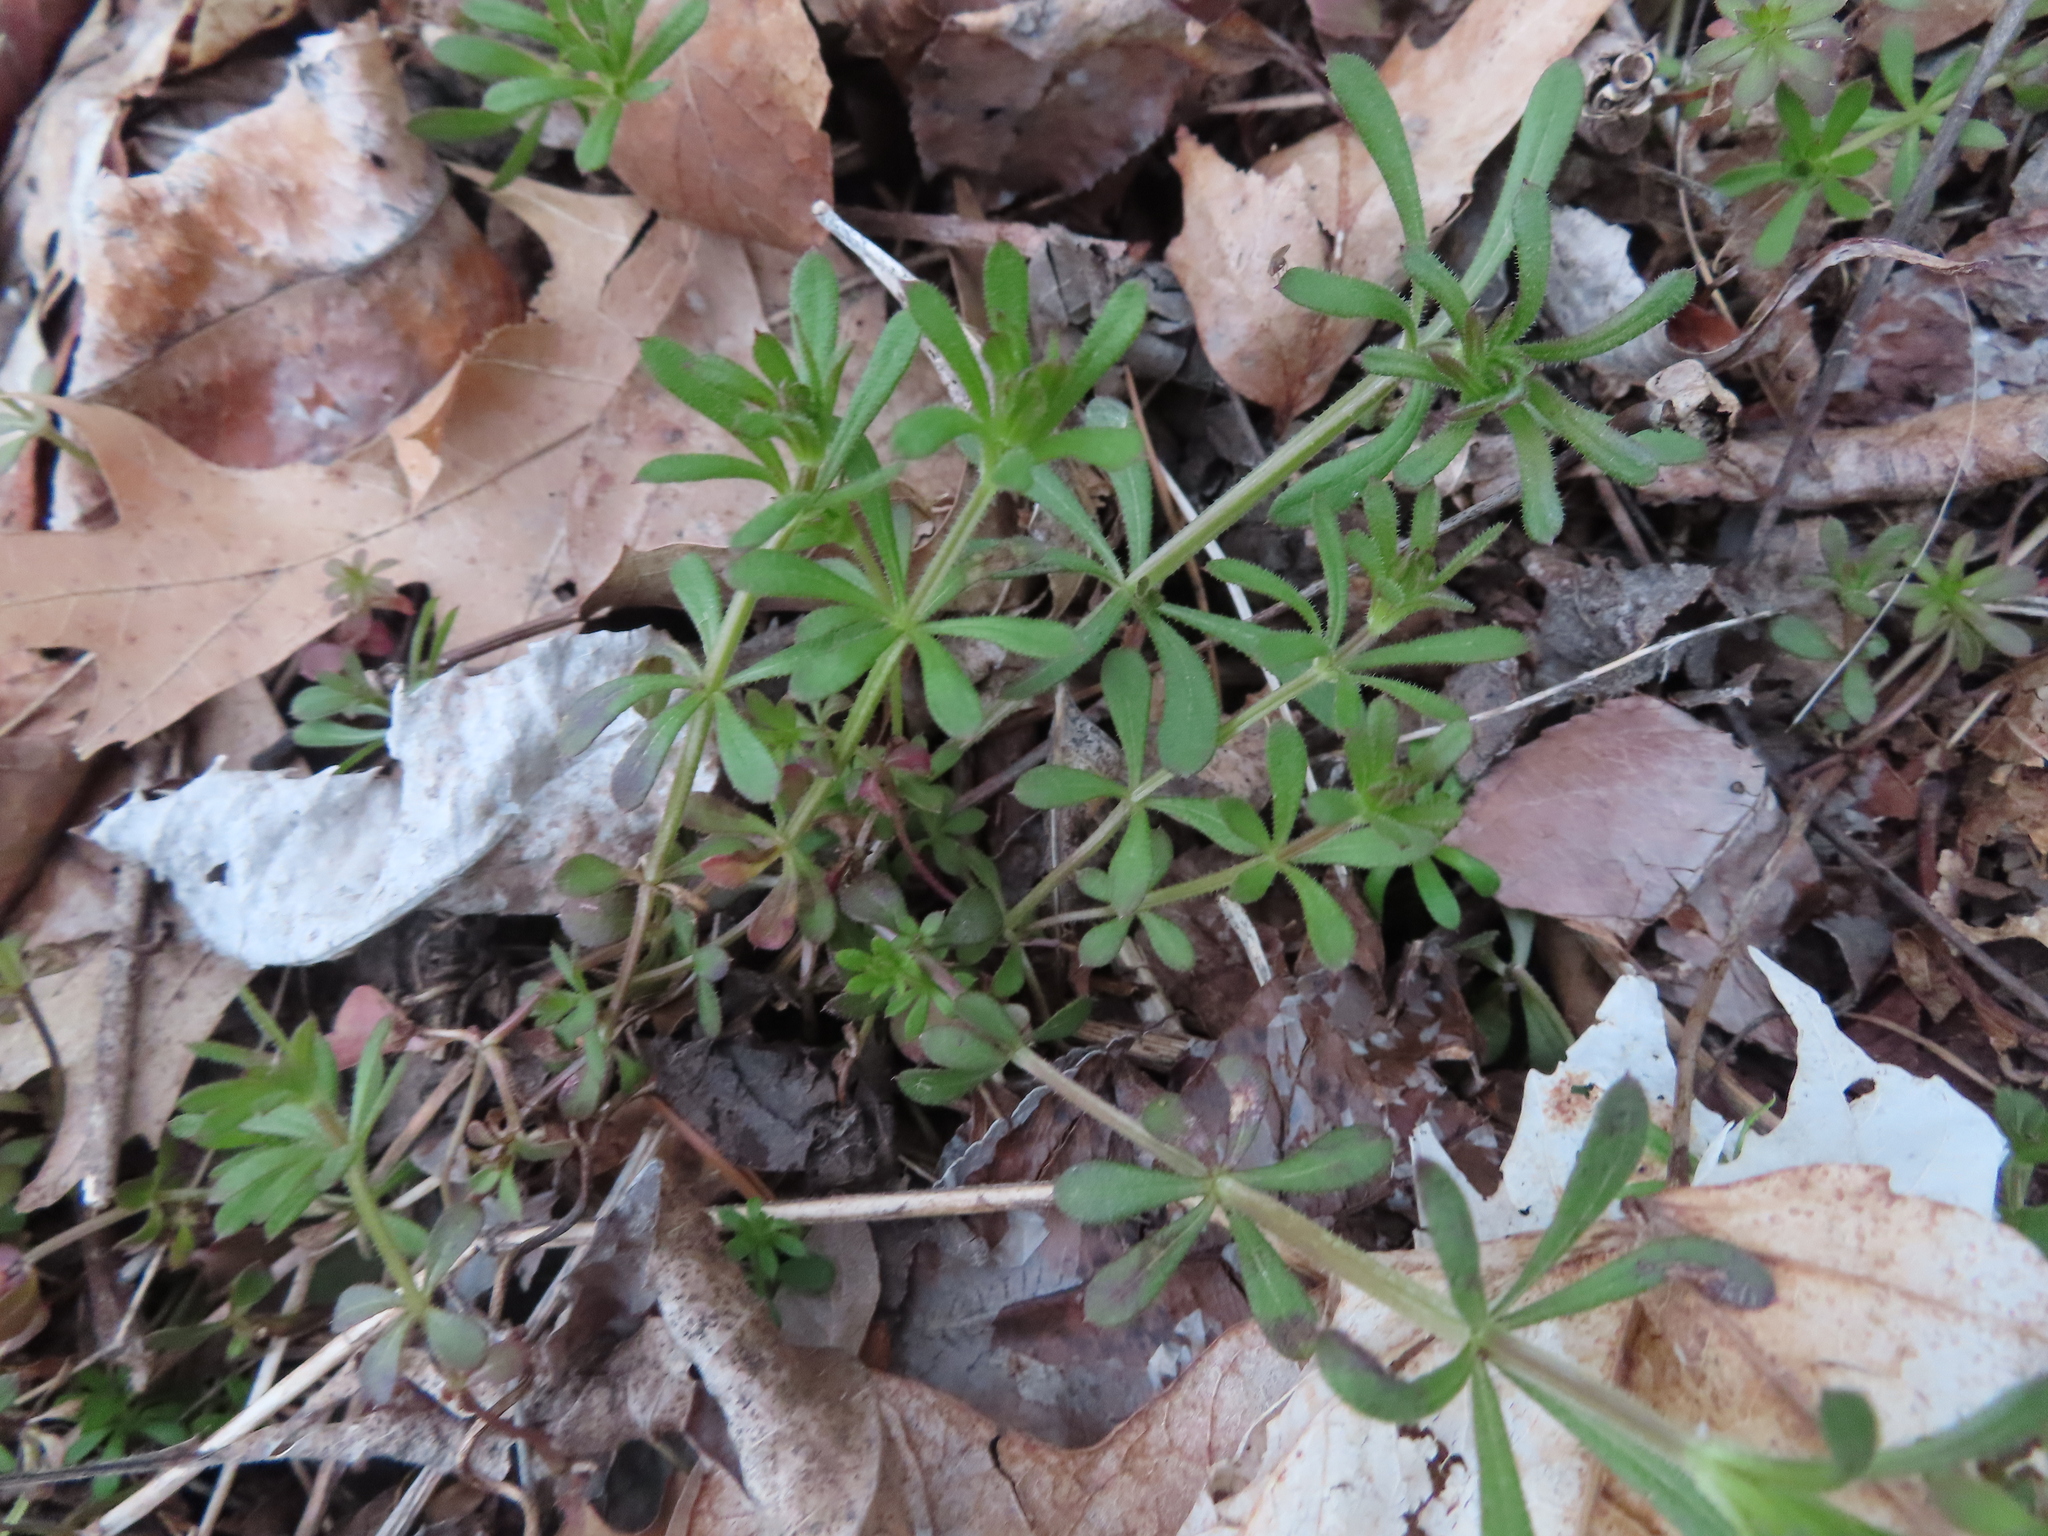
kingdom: Plantae
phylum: Tracheophyta
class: Magnoliopsida
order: Gentianales
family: Rubiaceae
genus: Galium
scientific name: Galium aparine
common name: Cleavers
